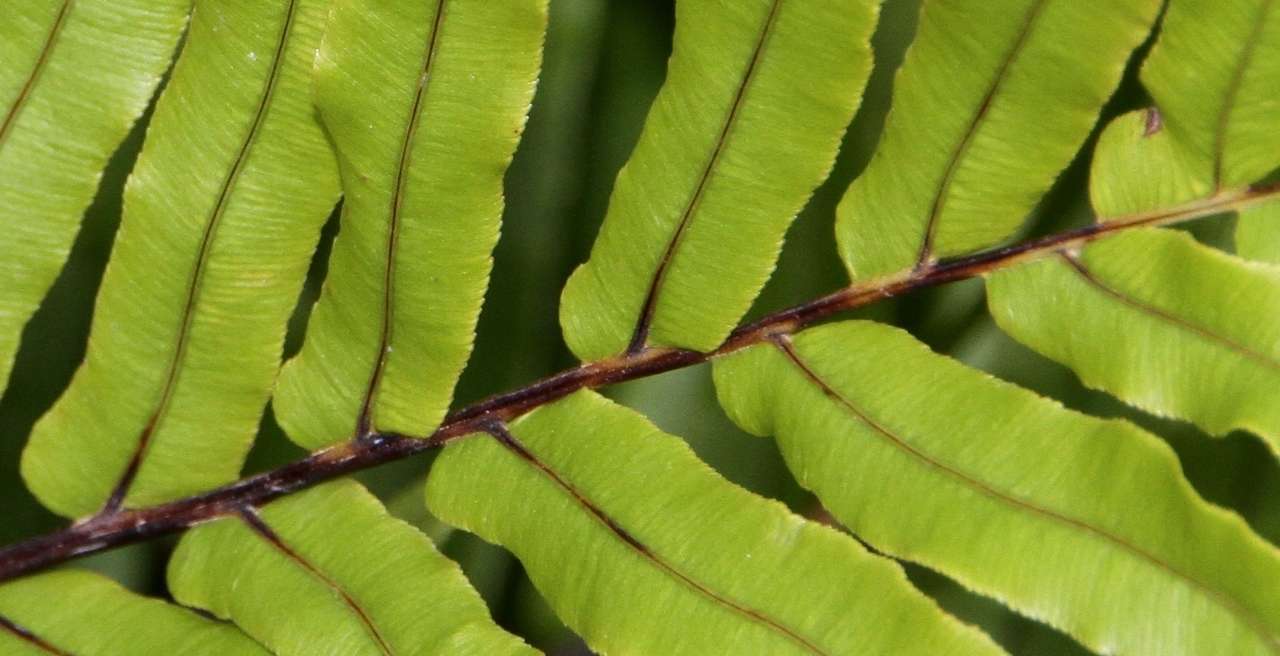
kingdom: Plantae
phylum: Tracheophyta
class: Polypodiopsida
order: Polypodiales
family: Blechnaceae
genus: Parablechnum
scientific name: Parablechnum minus
